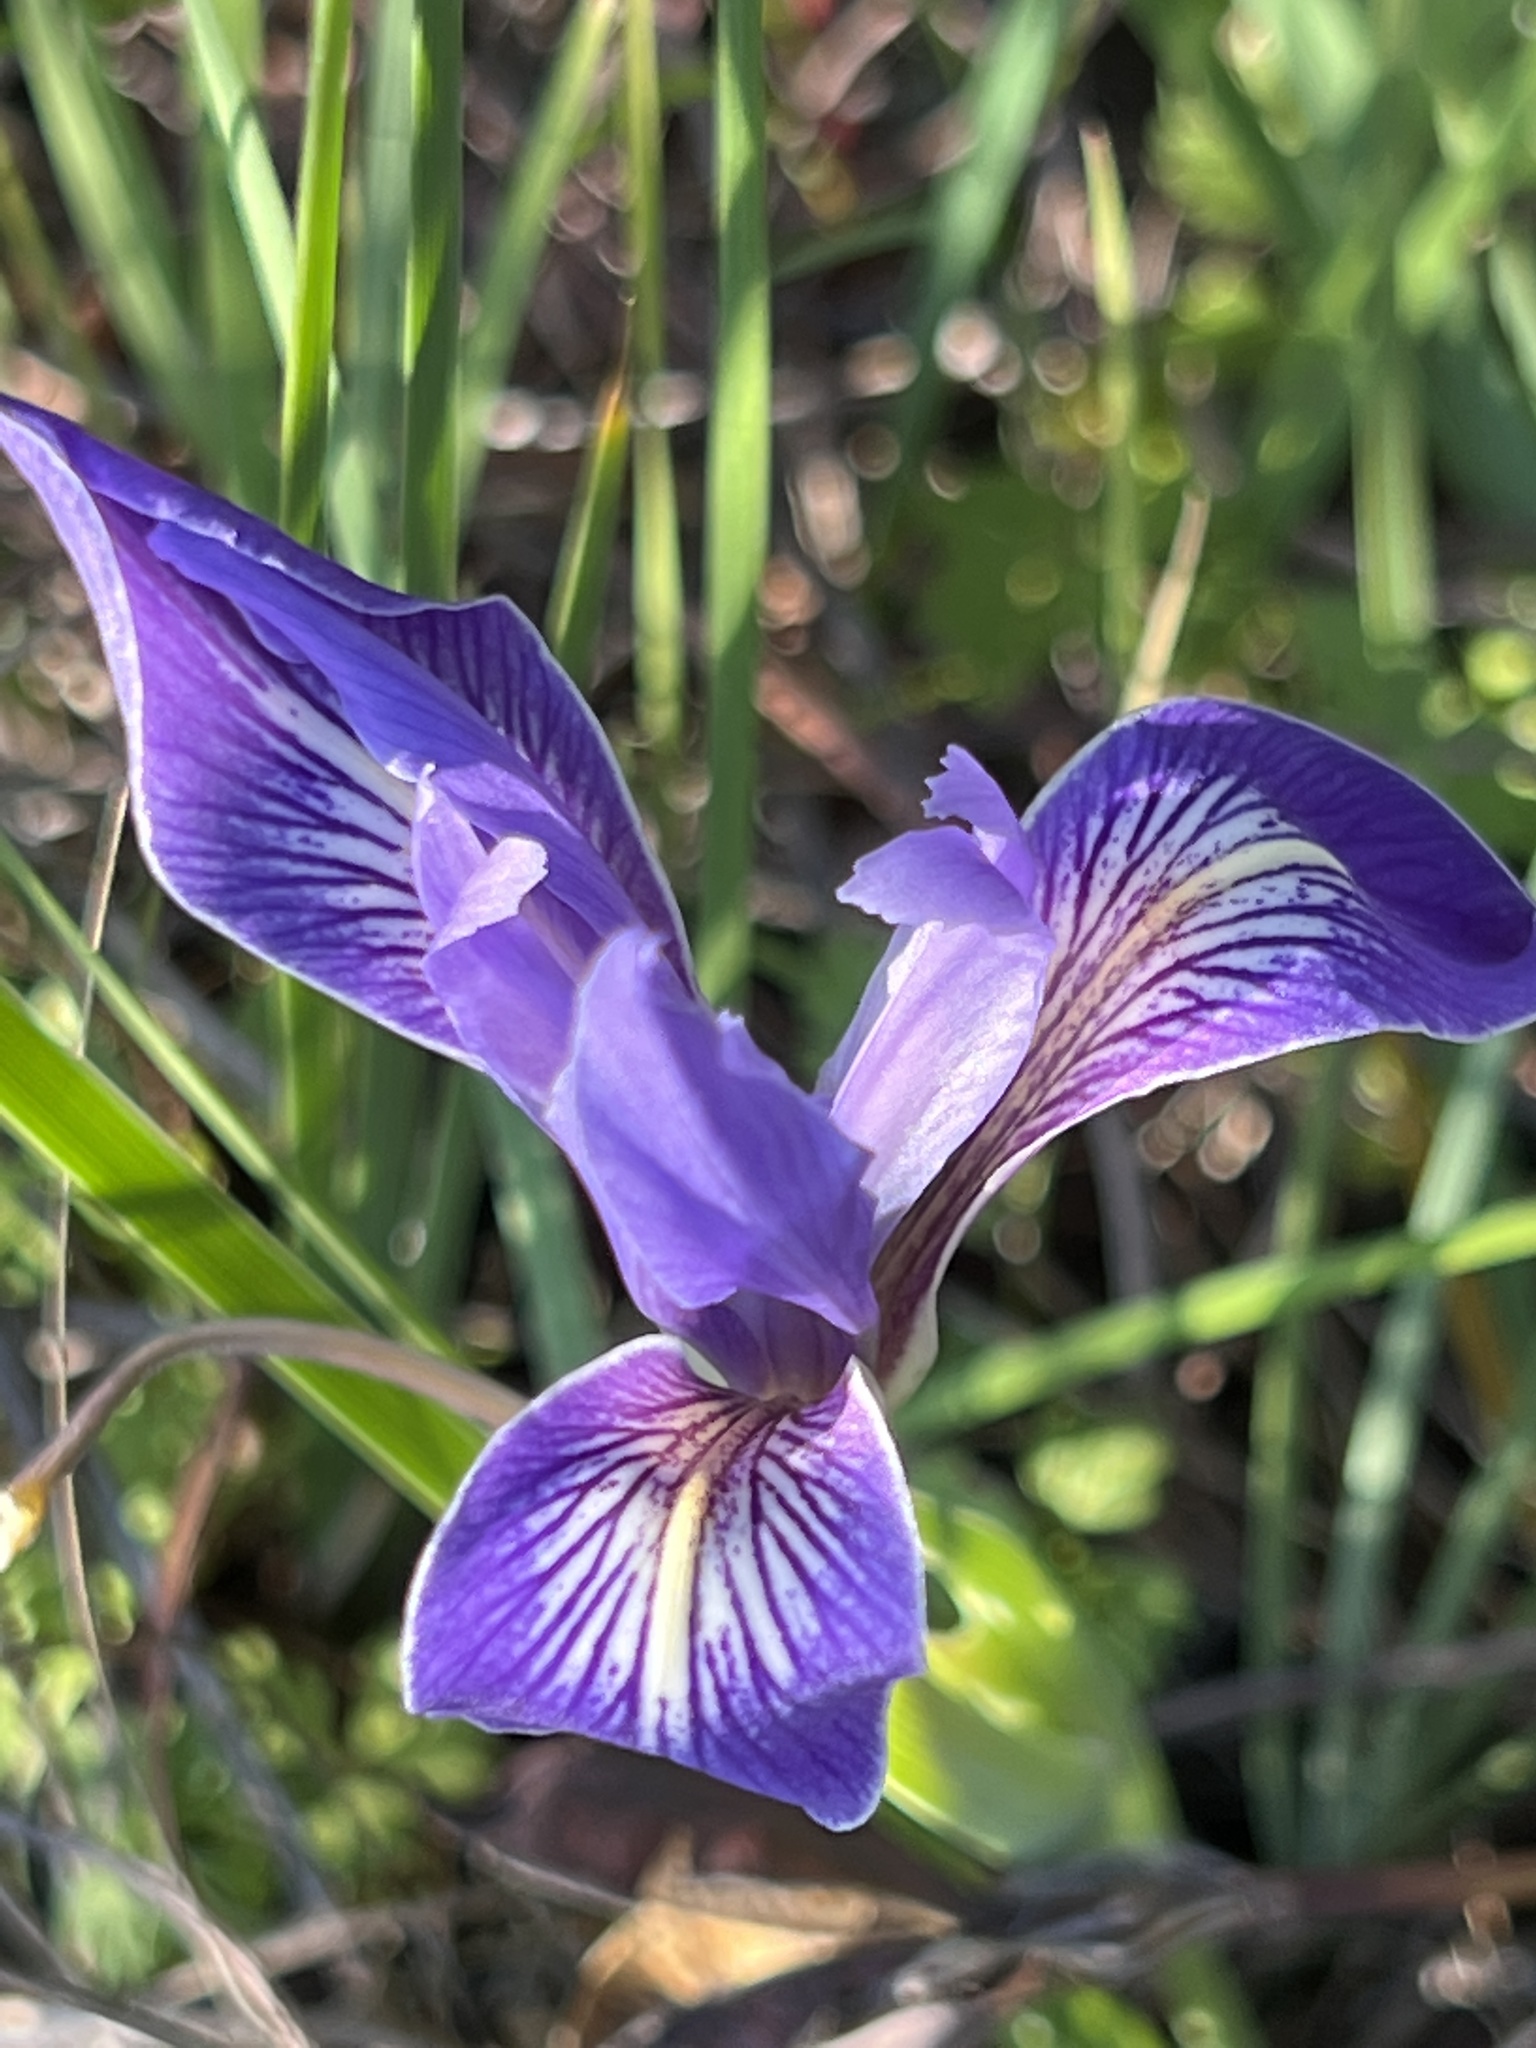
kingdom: Plantae
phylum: Tracheophyta
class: Liliopsida
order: Asparagales
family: Iridaceae
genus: Iris
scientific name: Iris macrosiphon
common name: Ground iris
